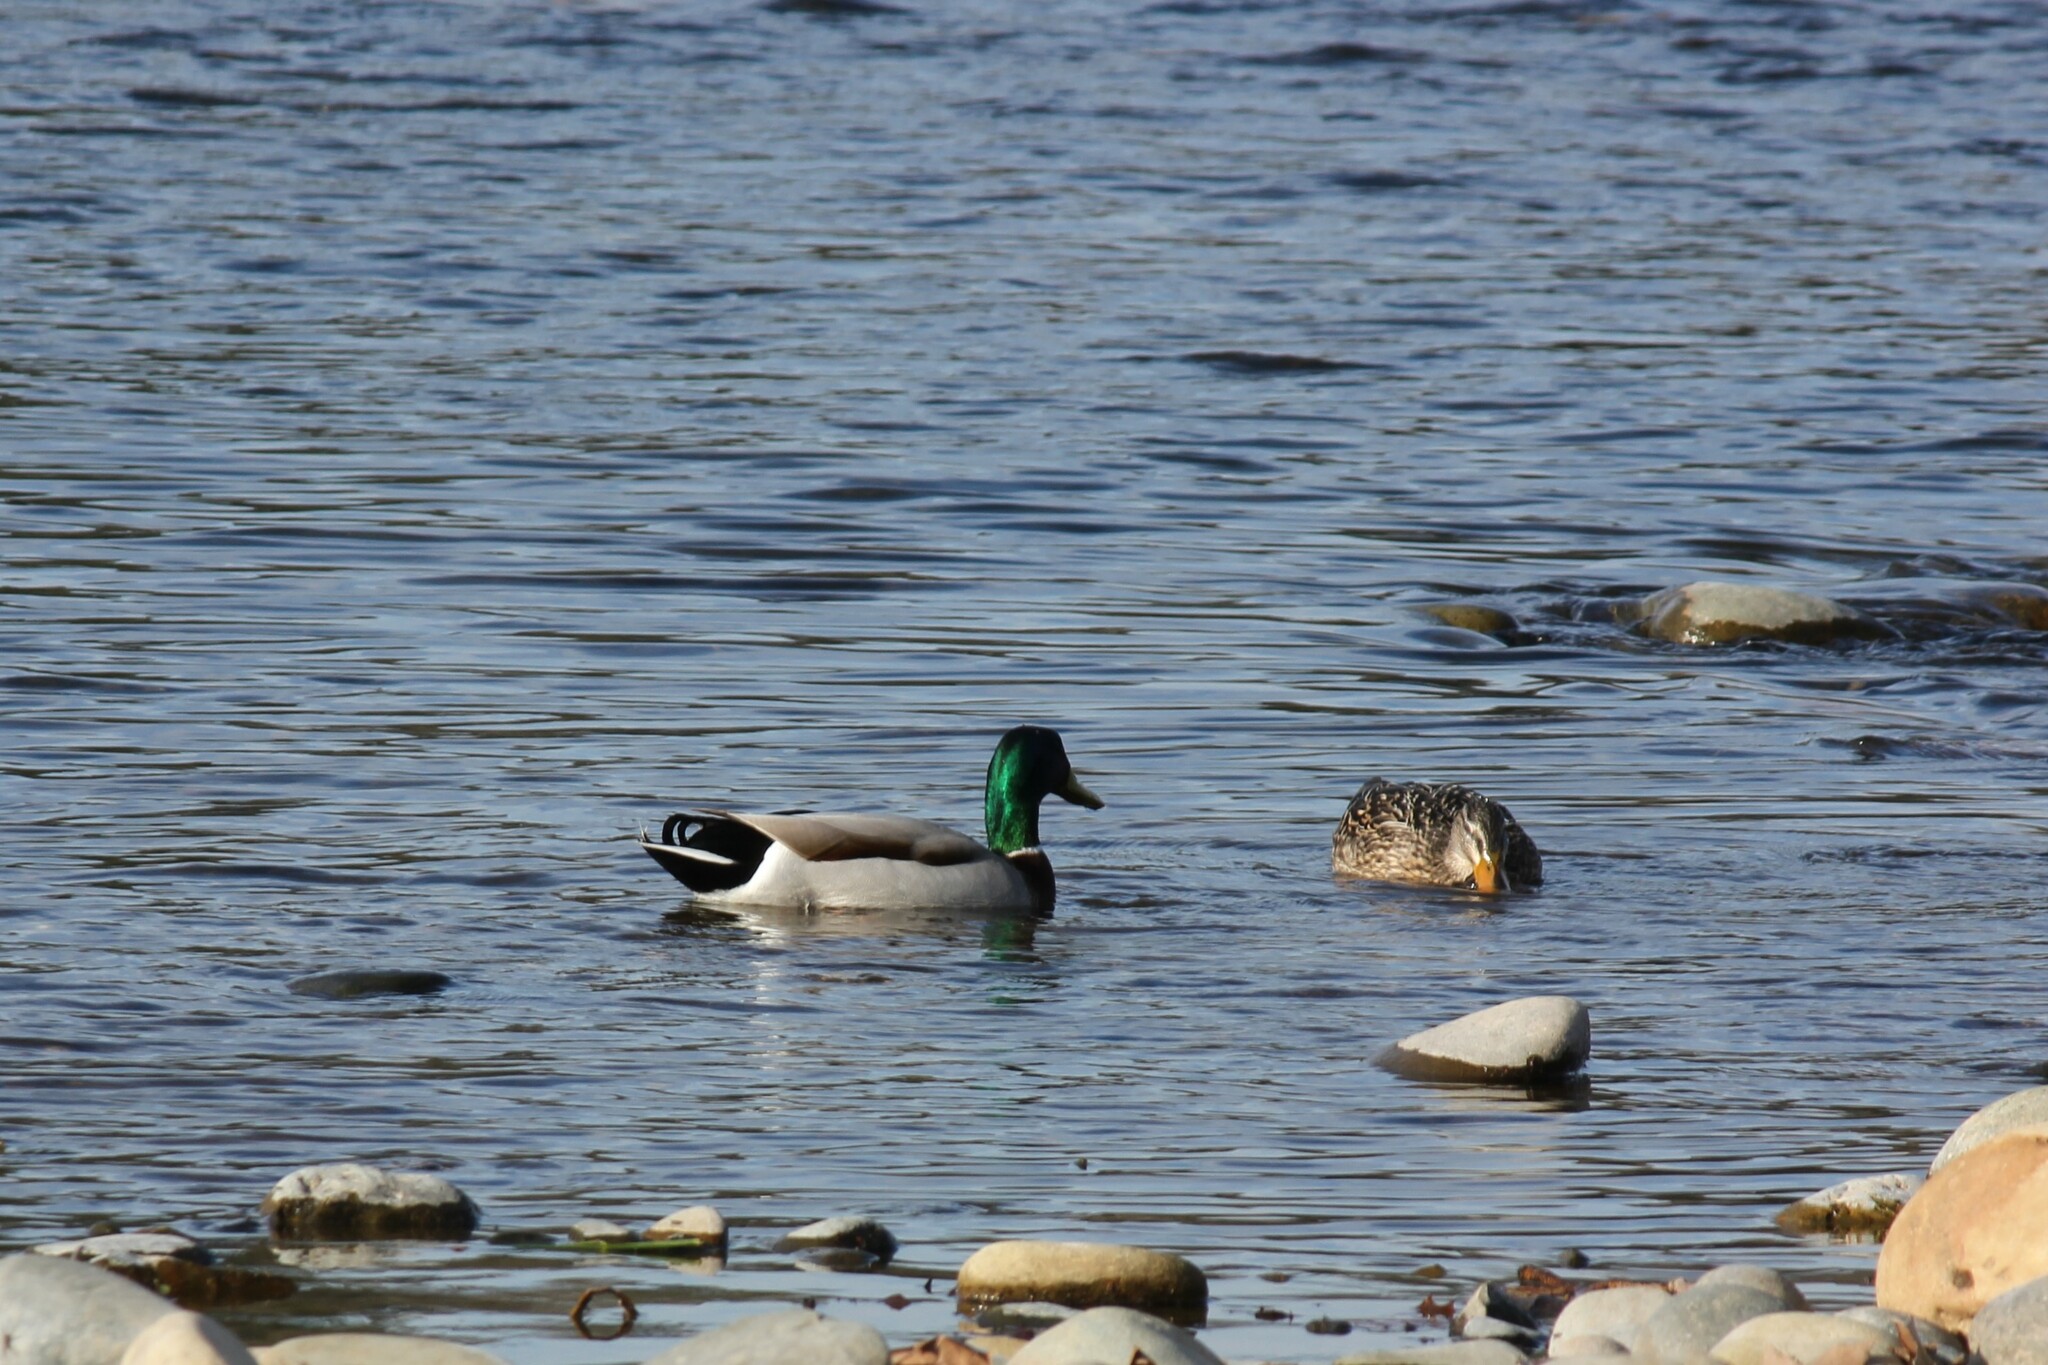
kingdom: Animalia
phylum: Chordata
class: Aves
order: Anseriformes
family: Anatidae
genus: Anas
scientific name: Anas platyrhynchos
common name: Mallard
